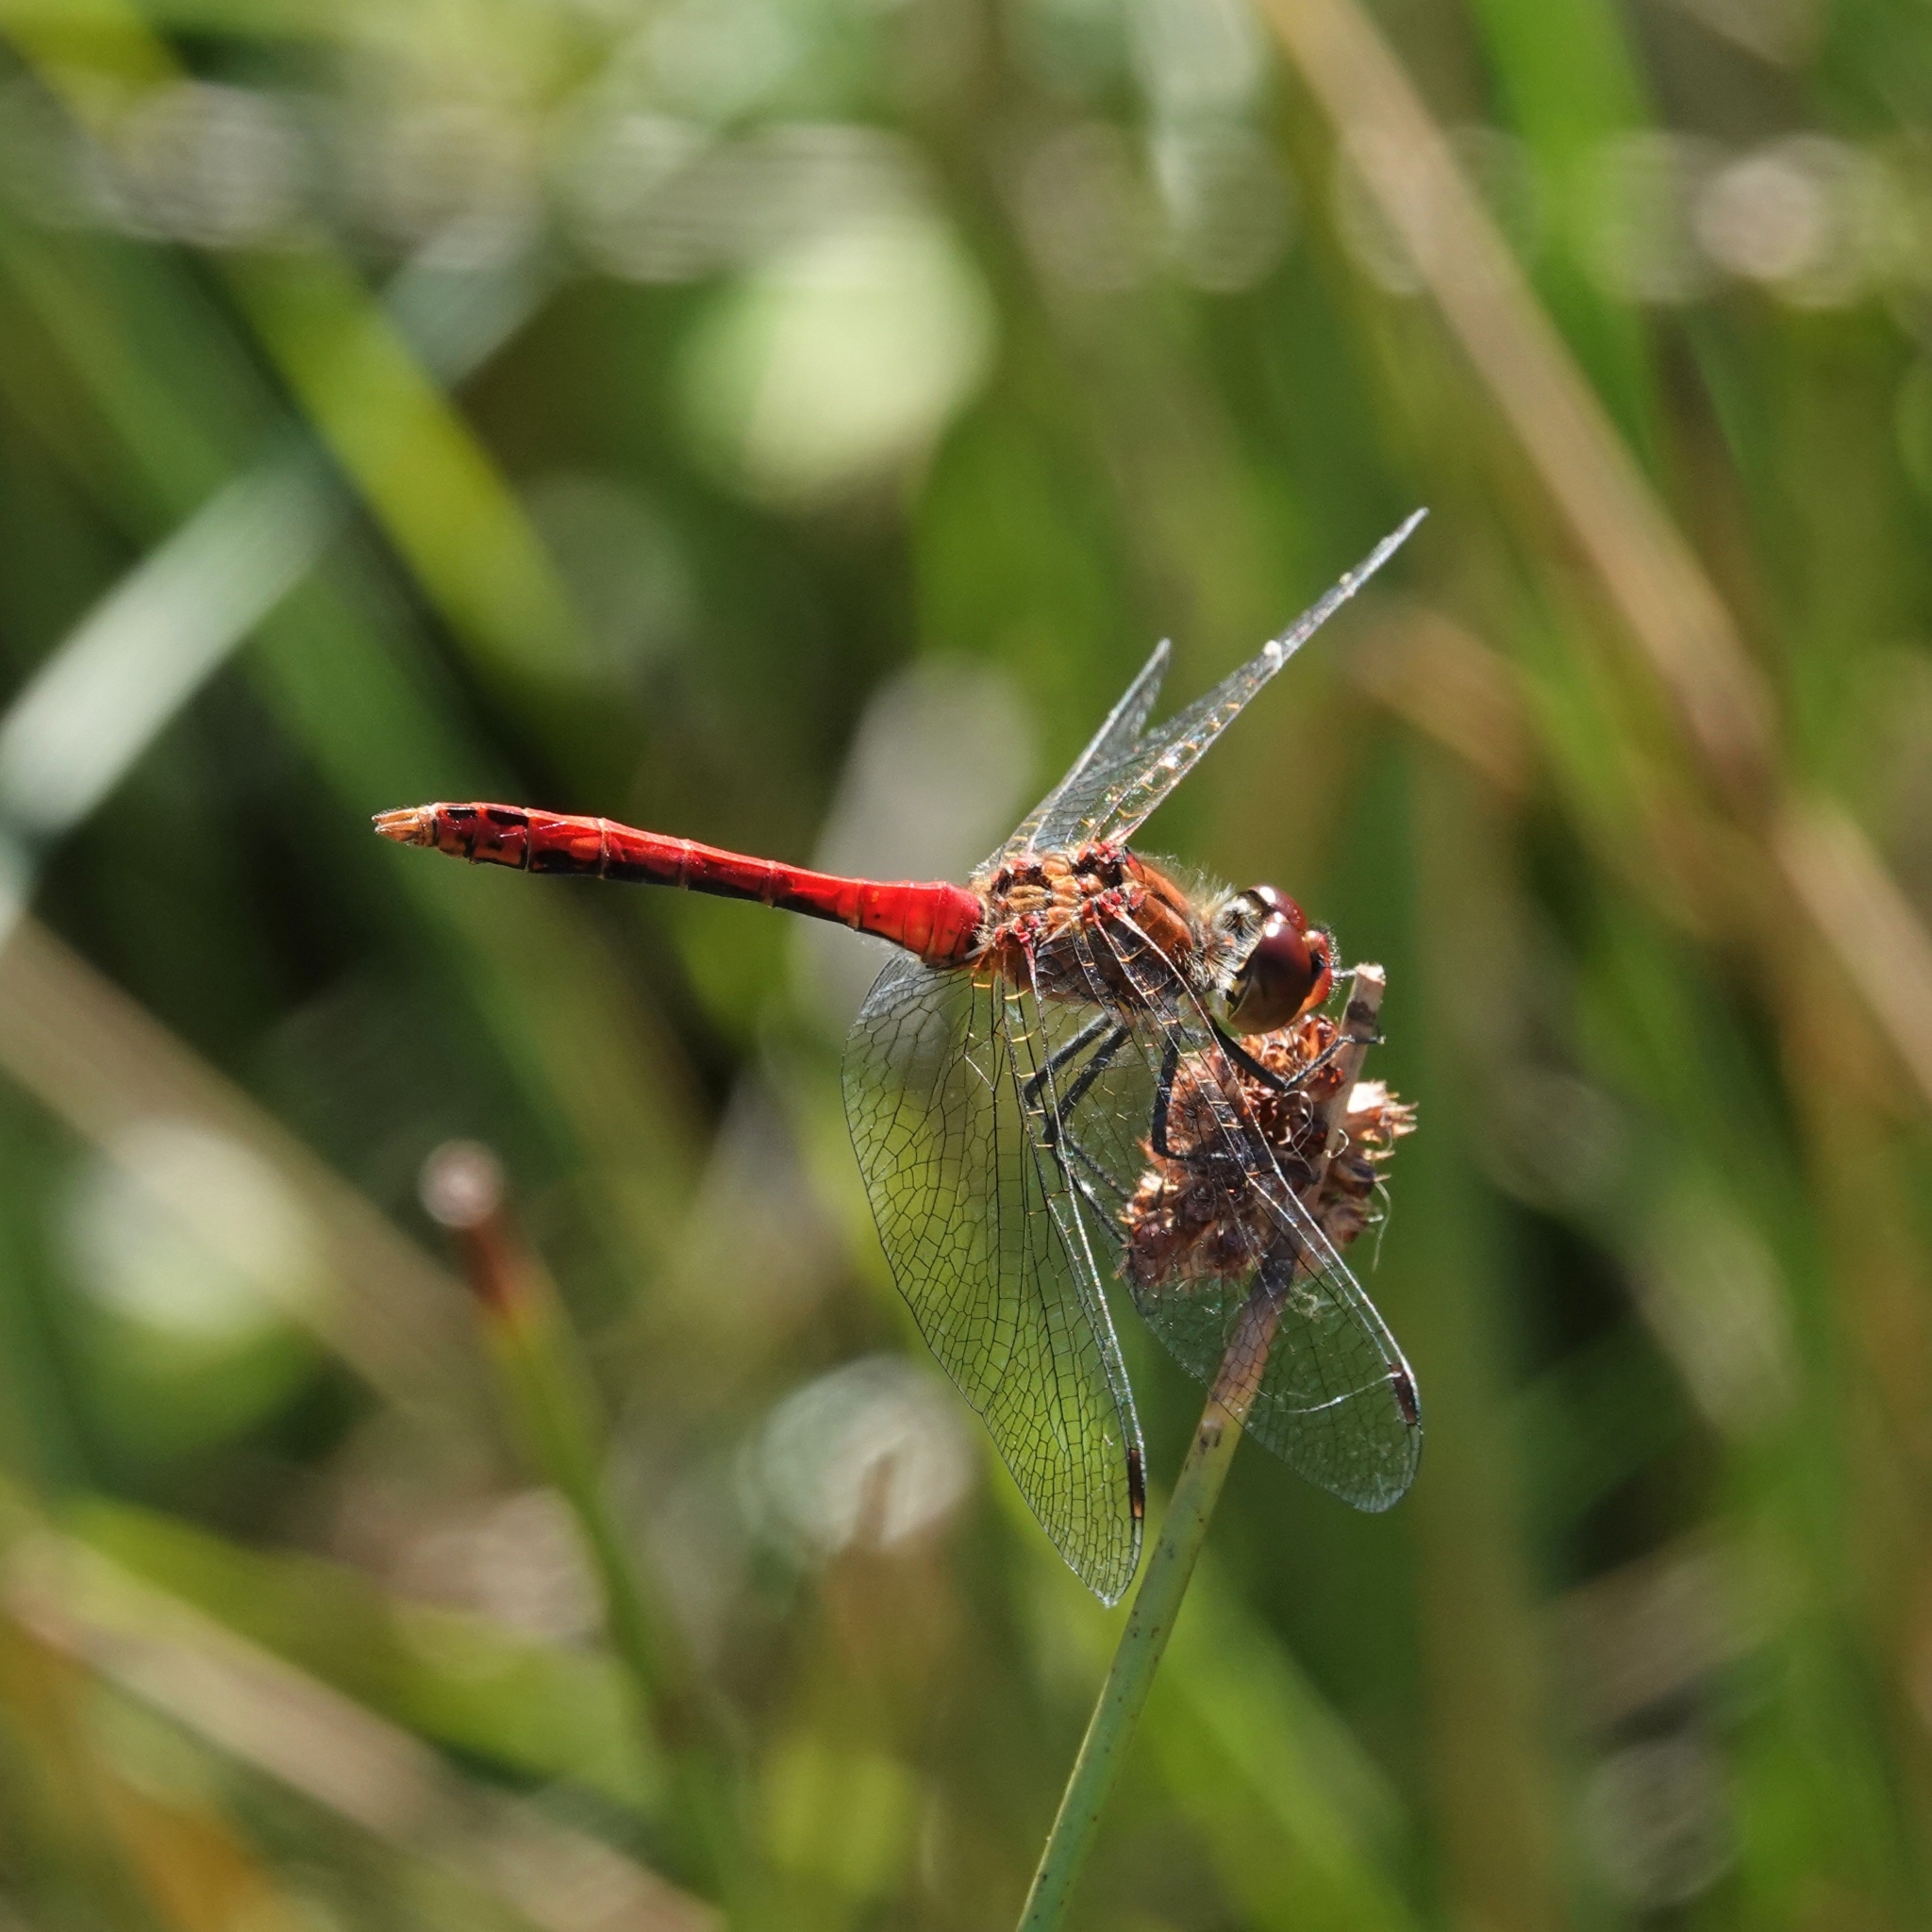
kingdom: Animalia
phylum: Arthropoda
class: Insecta
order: Odonata
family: Libellulidae
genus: Sympetrum
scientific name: Sympetrum sanguineum
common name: Ruddy darter
